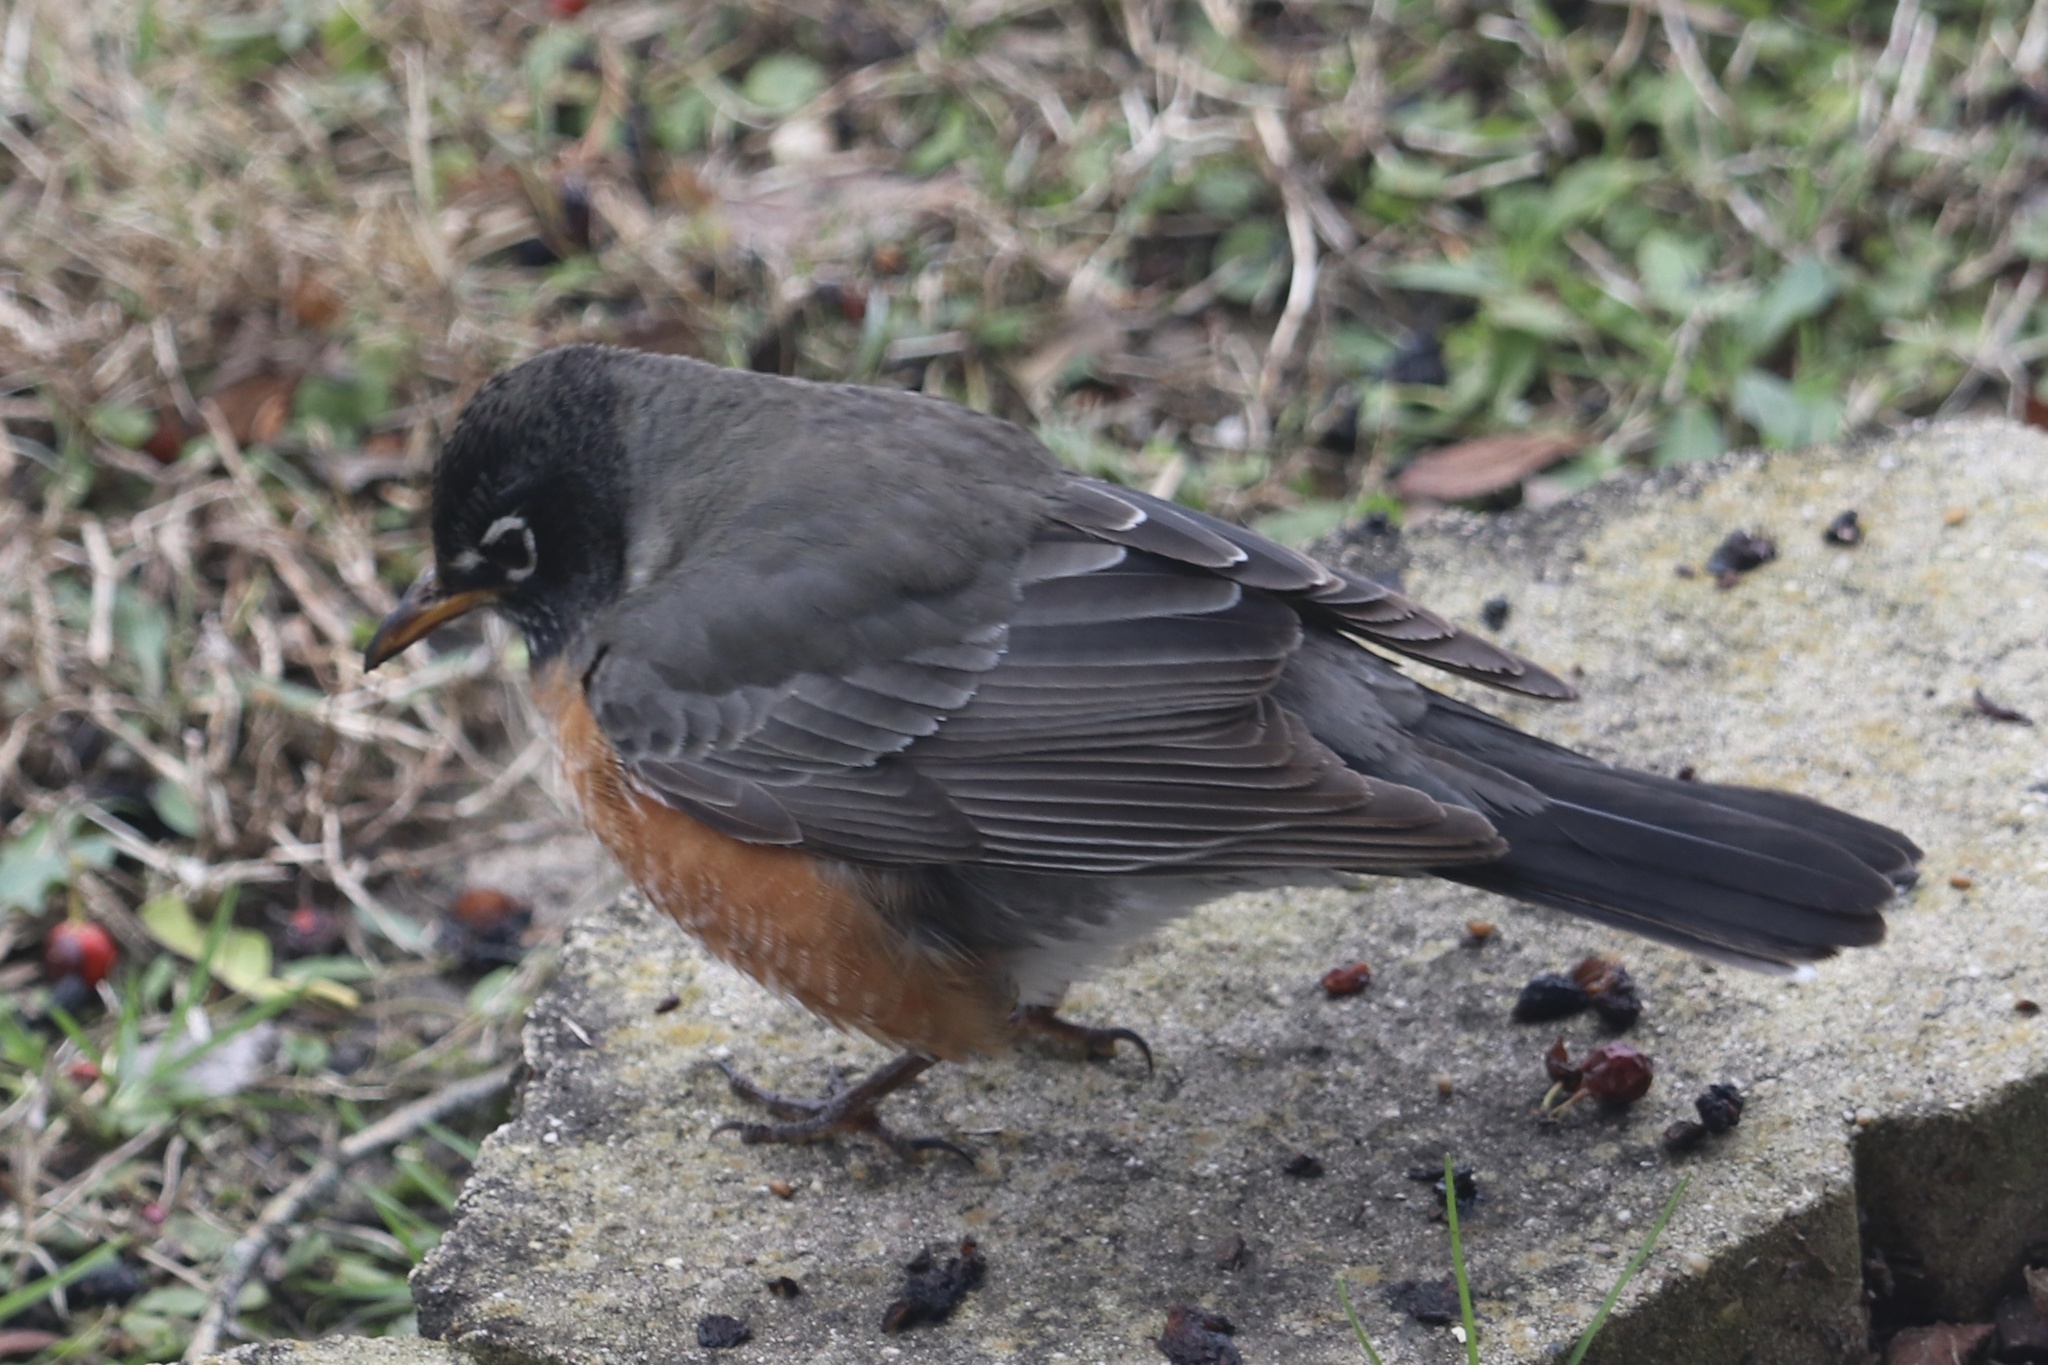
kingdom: Animalia
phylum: Chordata
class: Aves
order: Passeriformes
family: Turdidae
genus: Turdus
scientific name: Turdus migratorius
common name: American robin
